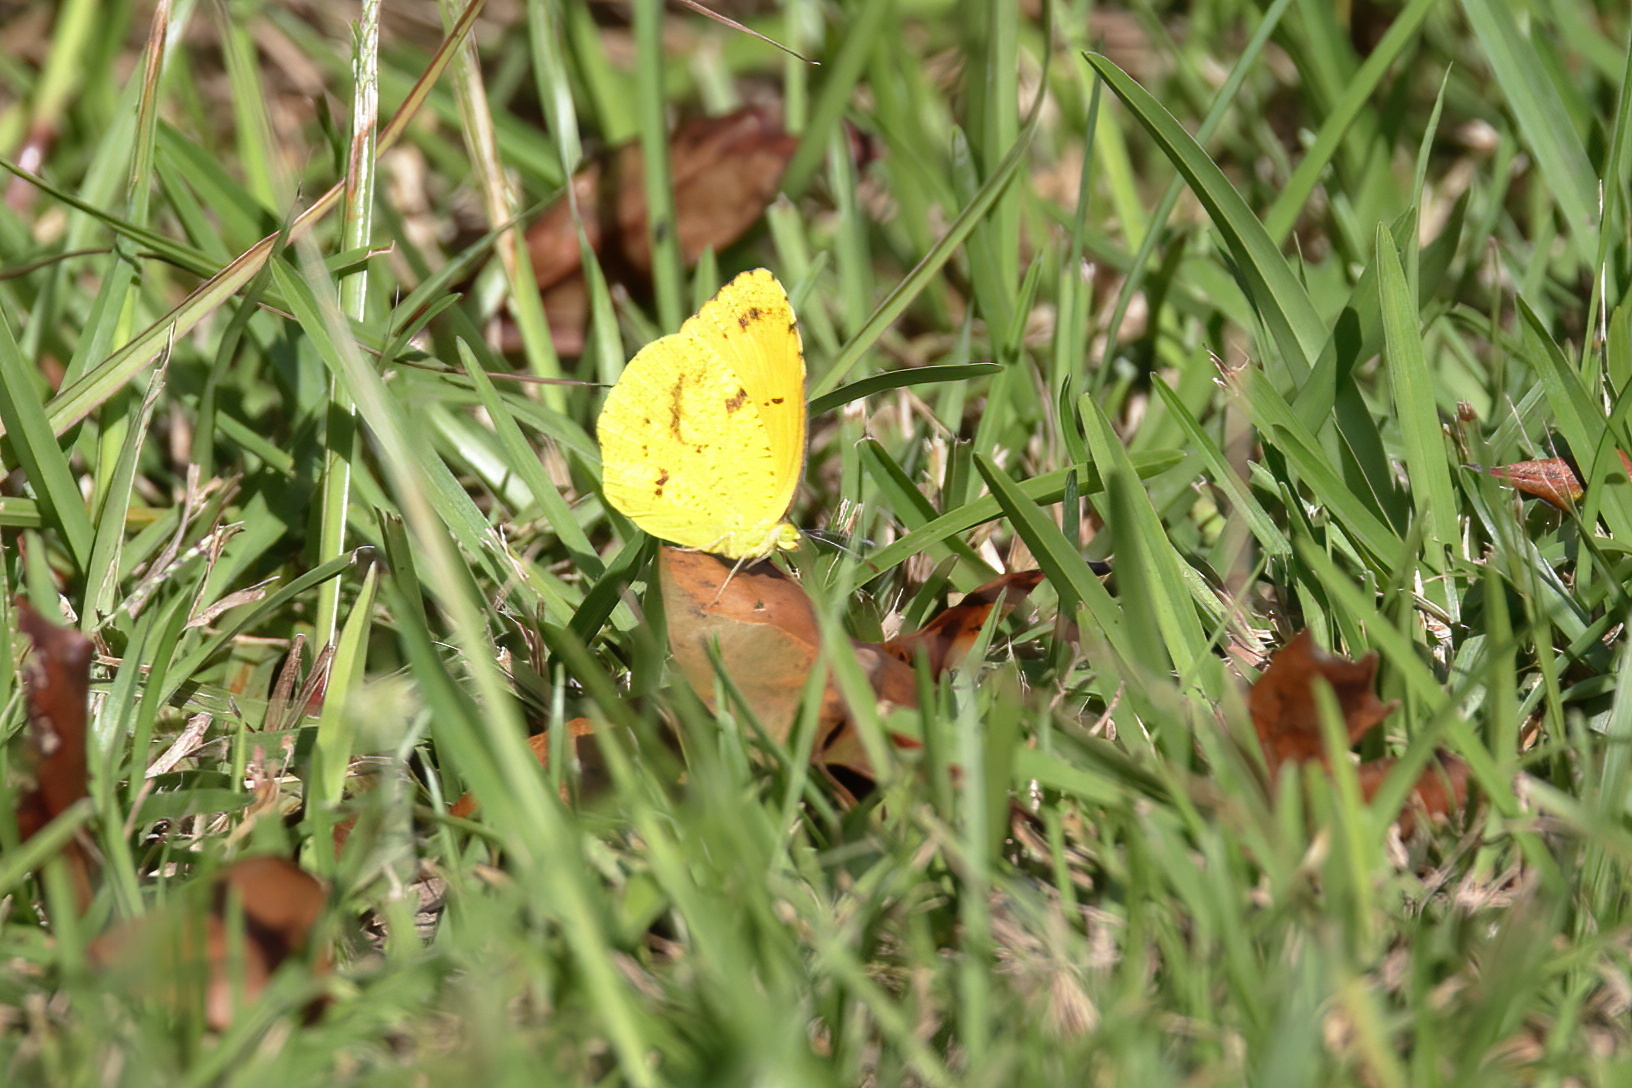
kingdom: Animalia
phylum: Arthropoda
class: Insecta
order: Lepidoptera
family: Pieridae
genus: Abaeis
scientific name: Abaeis nicippe
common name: Sleepy orange
